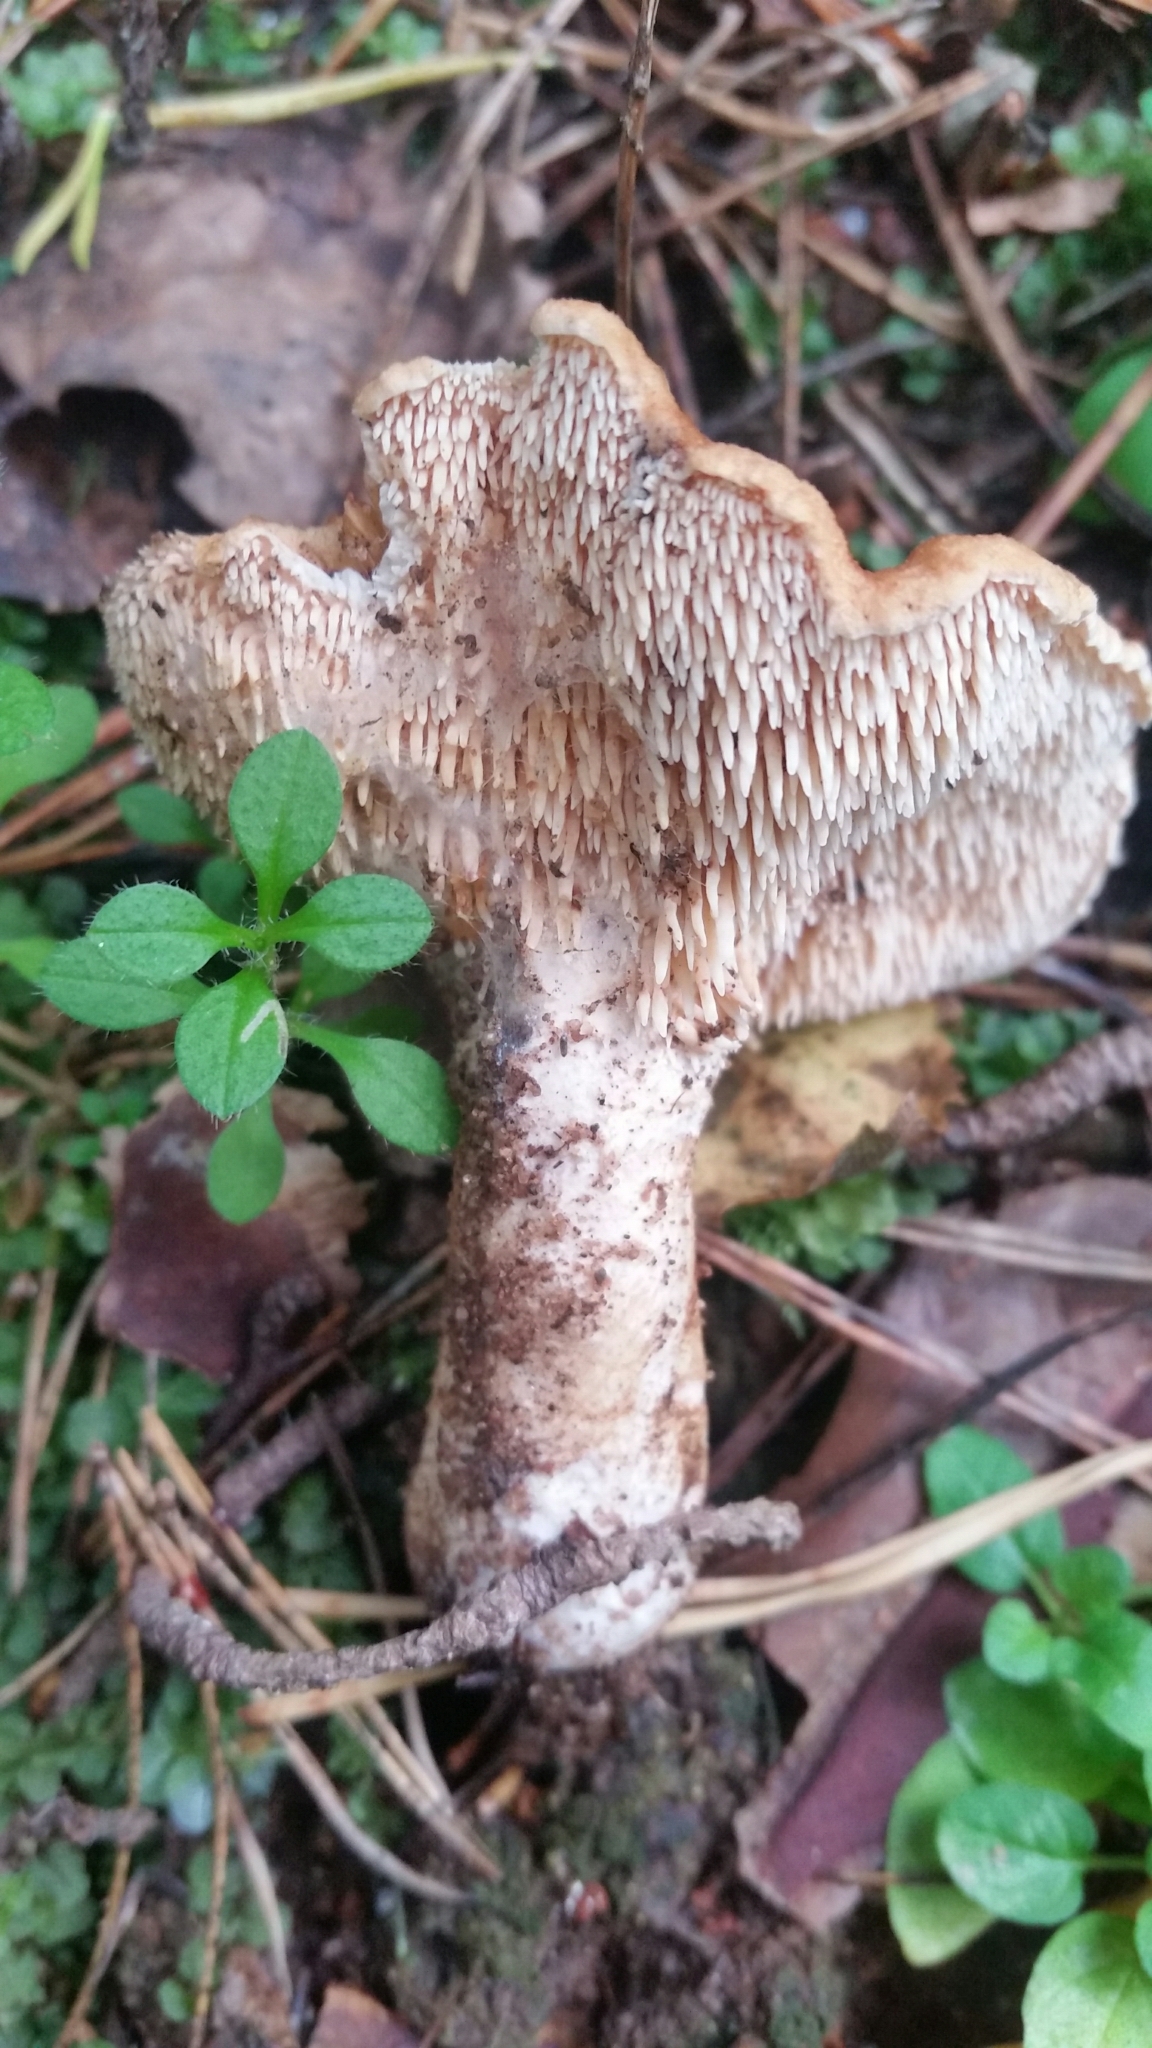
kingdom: Fungi
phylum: Basidiomycota
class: Agaricomycetes
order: Cantharellales
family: Hydnaceae
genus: Hydnum
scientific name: Hydnum rufescens
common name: Terracotta hedgehog
